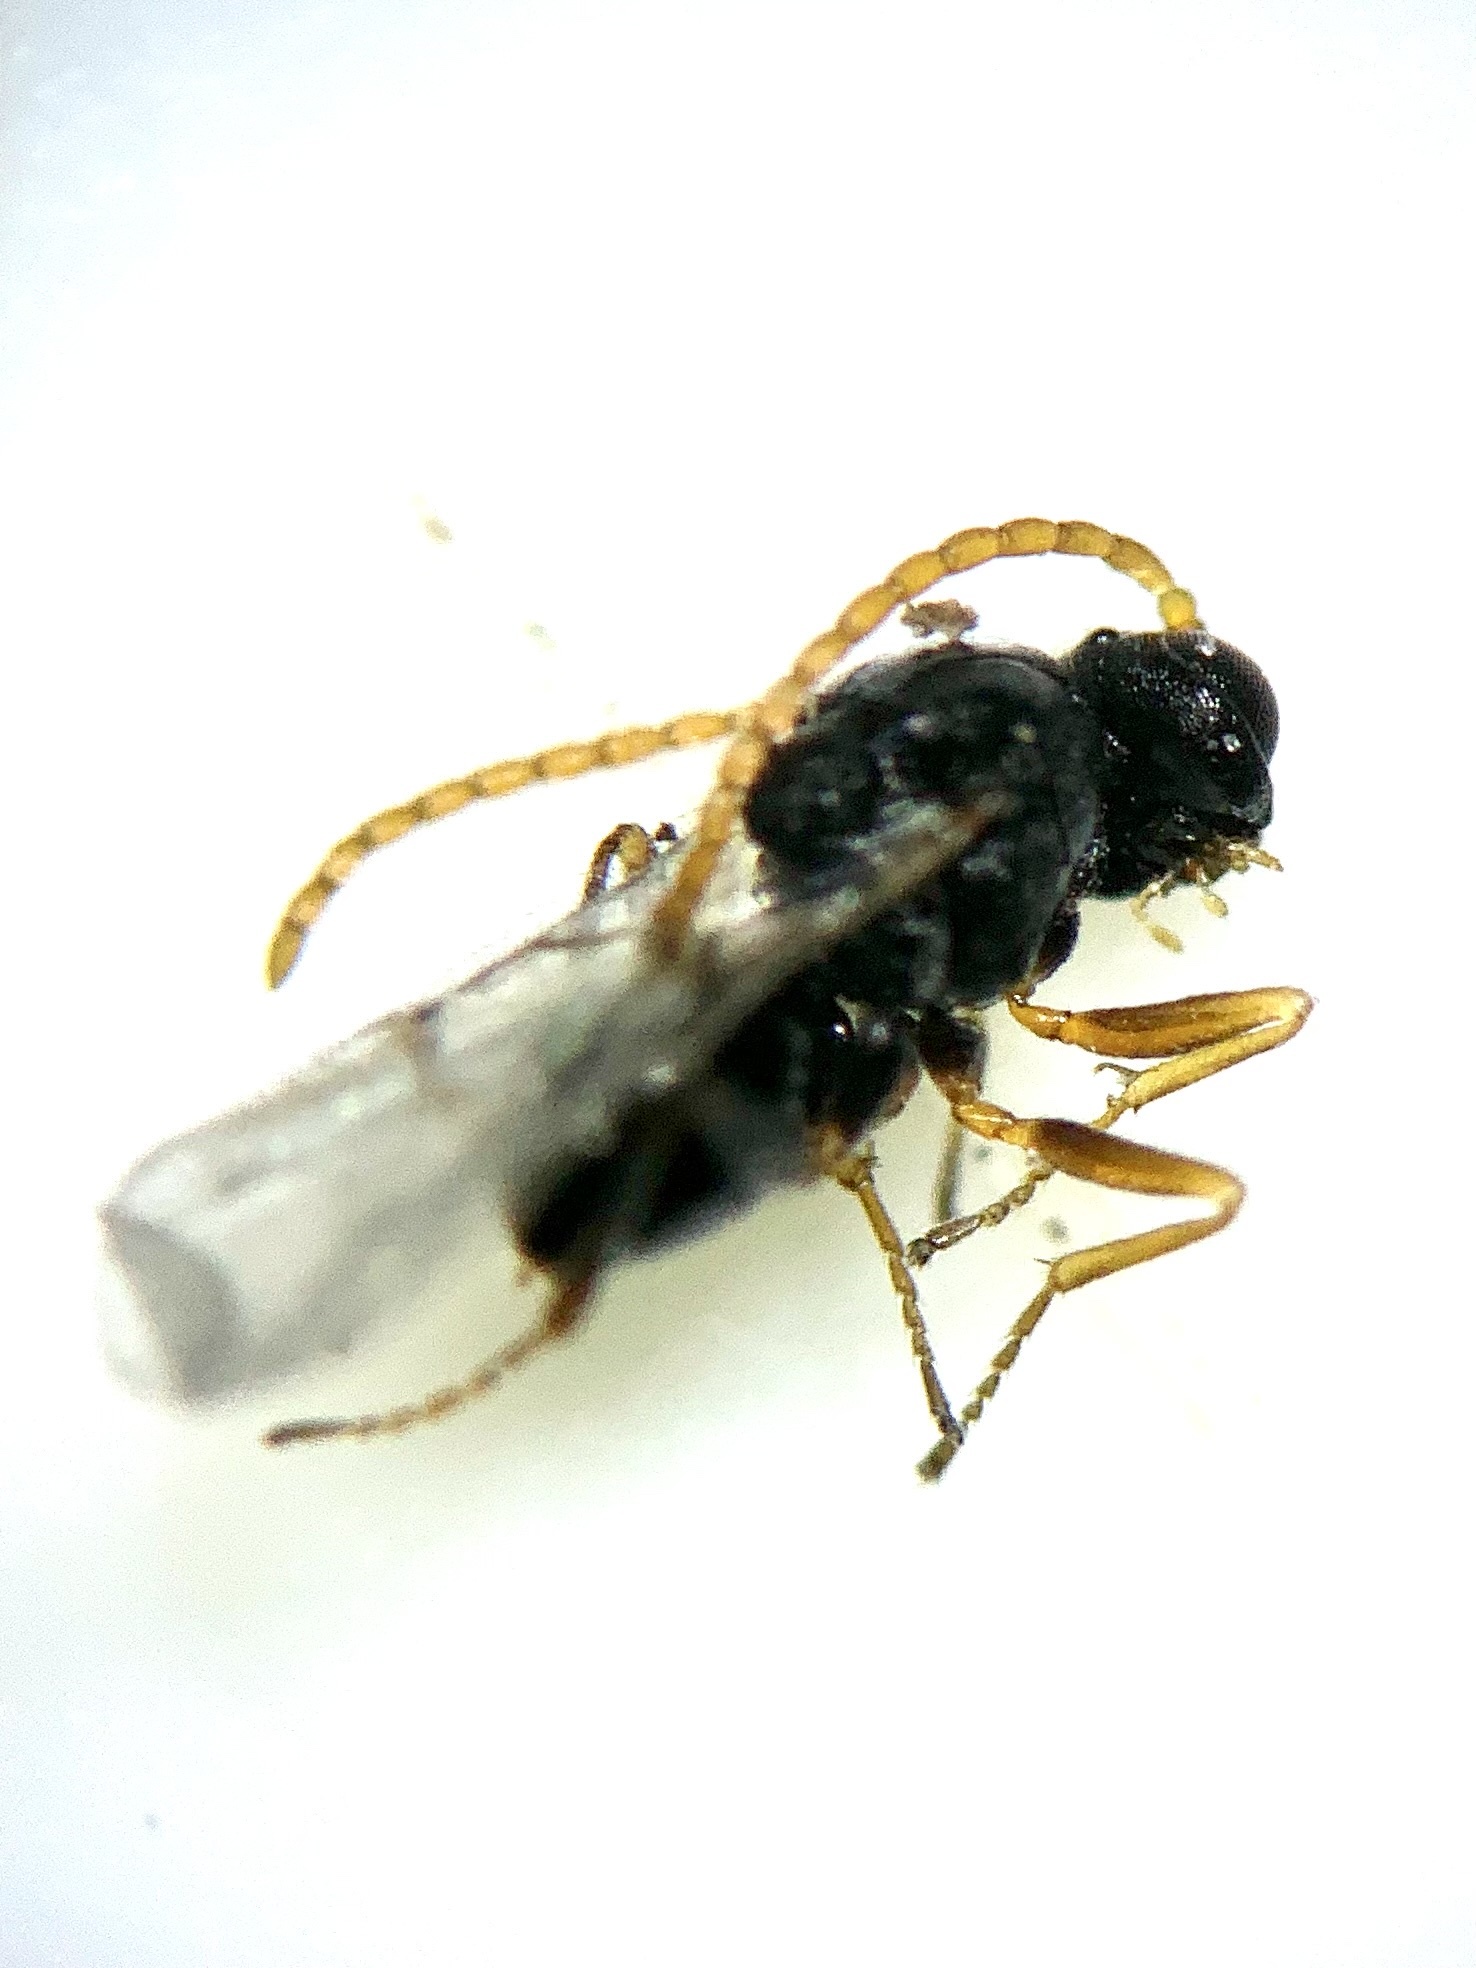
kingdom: Animalia
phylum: Arthropoda
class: Insecta
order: Hymenoptera
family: Cynipidae
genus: Callirhytis
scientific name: Callirhytis
